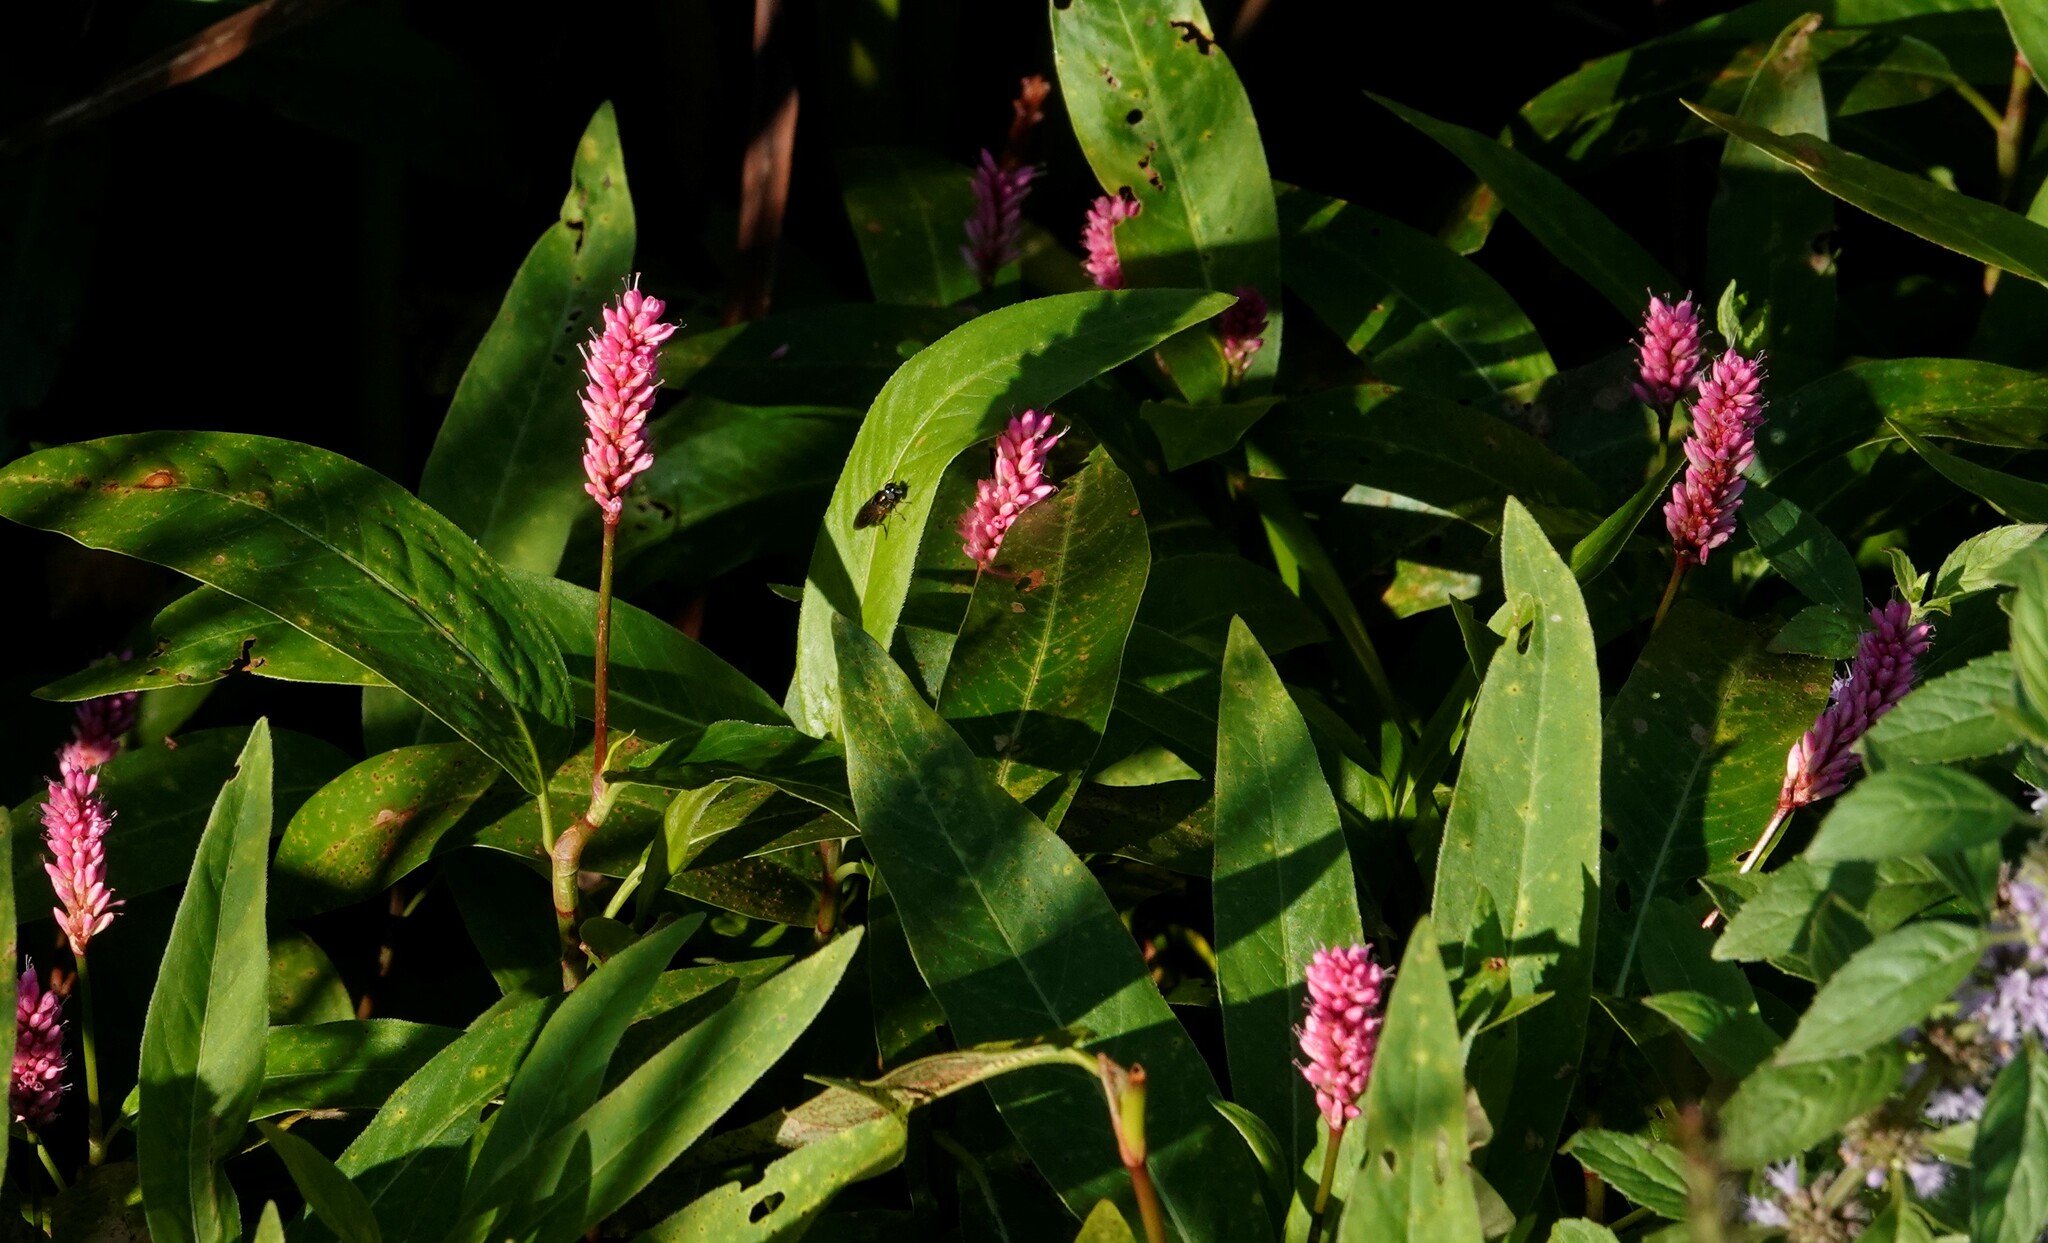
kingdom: Plantae
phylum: Tracheophyta
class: Magnoliopsida
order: Caryophyllales
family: Polygonaceae
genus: Persicaria
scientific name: Persicaria amphibia
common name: Amphibious bistort
